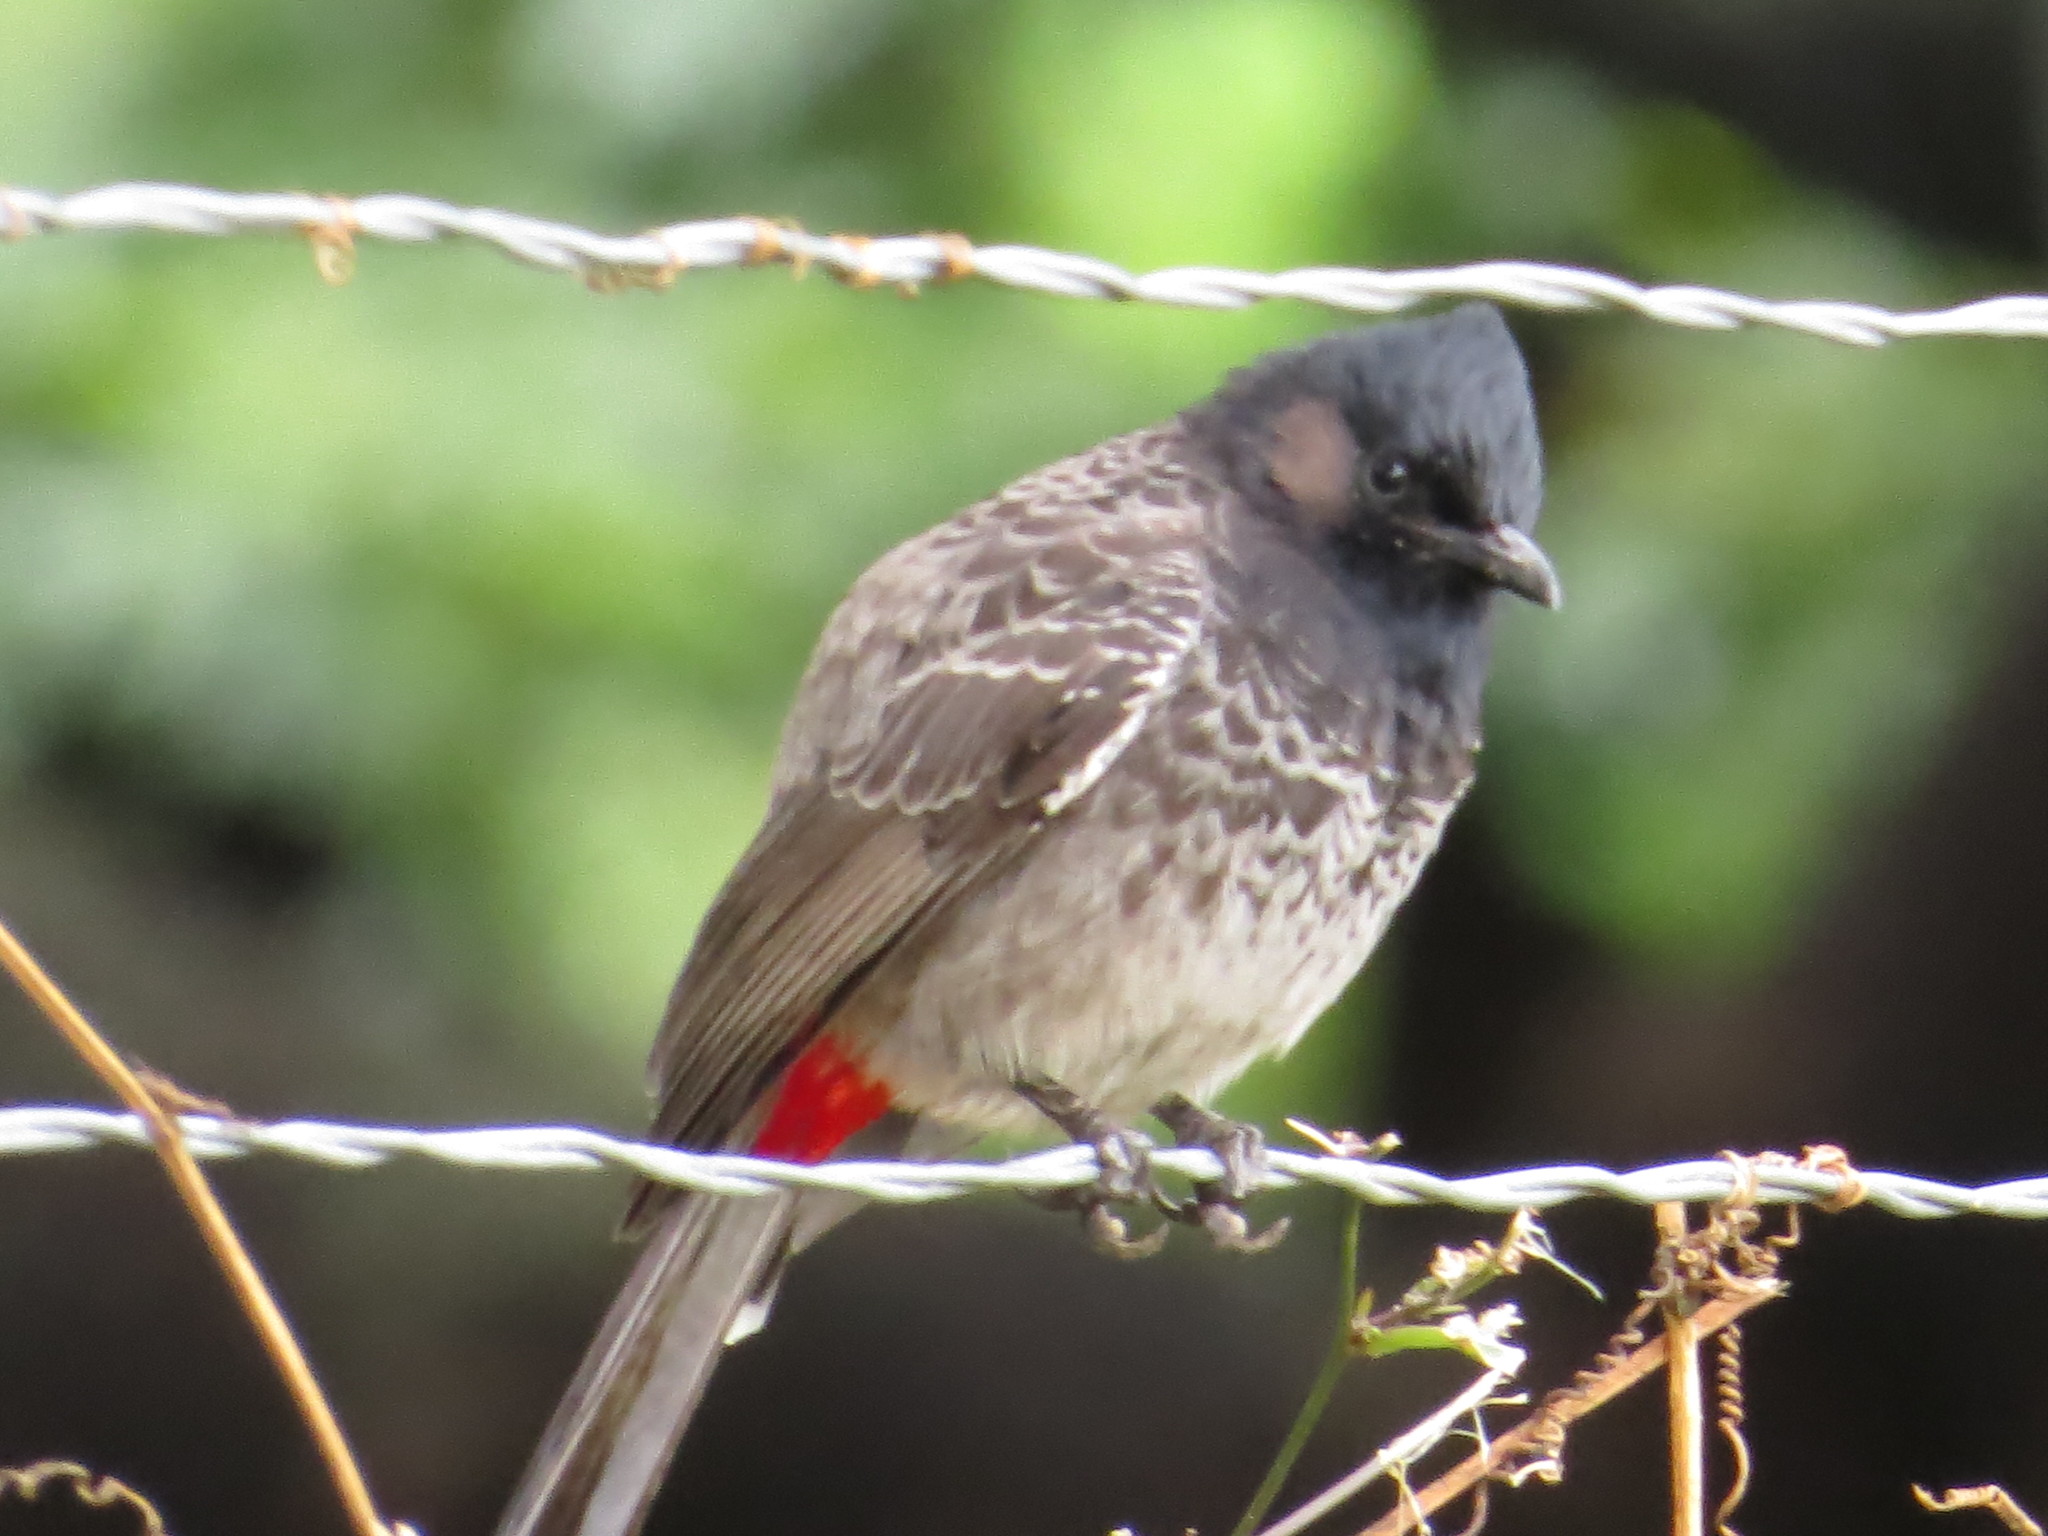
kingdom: Animalia
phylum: Chordata
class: Aves
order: Passeriformes
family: Pycnonotidae
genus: Pycnonotus
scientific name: Pycnonotus cafer
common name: Red-vented bulbul
